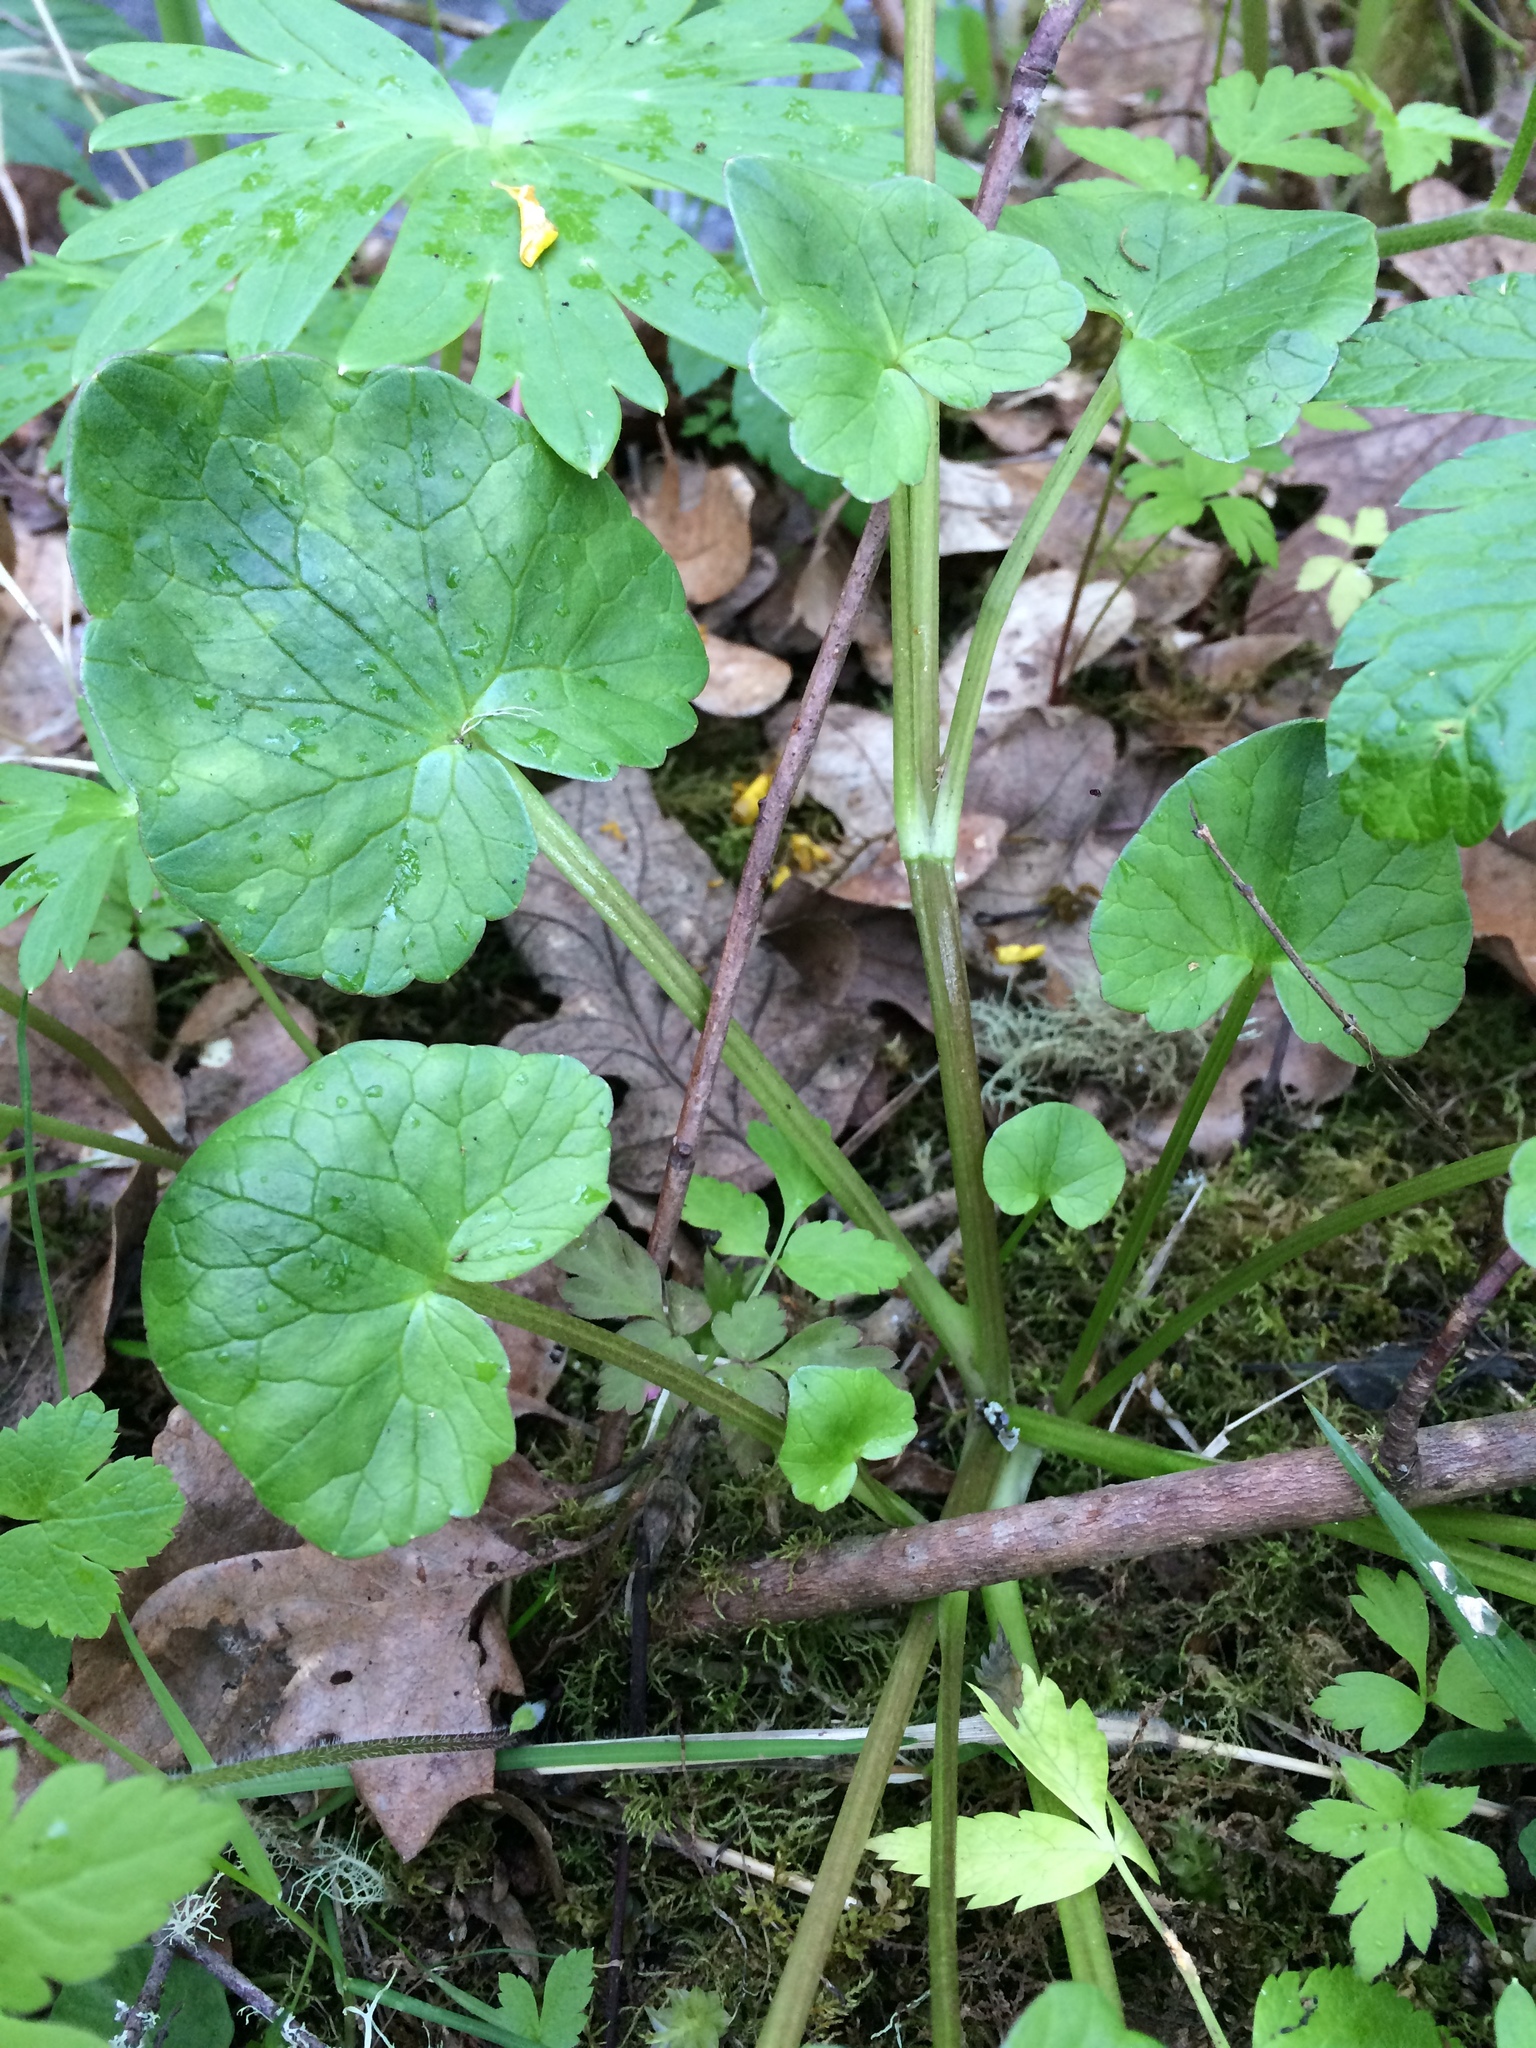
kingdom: Plantae
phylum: Tracheophyta
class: Magnoliopsida
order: Ranunculales
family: Ranunculaceae
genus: Ficaria
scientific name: Ficaria verna
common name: Lesser celandine
